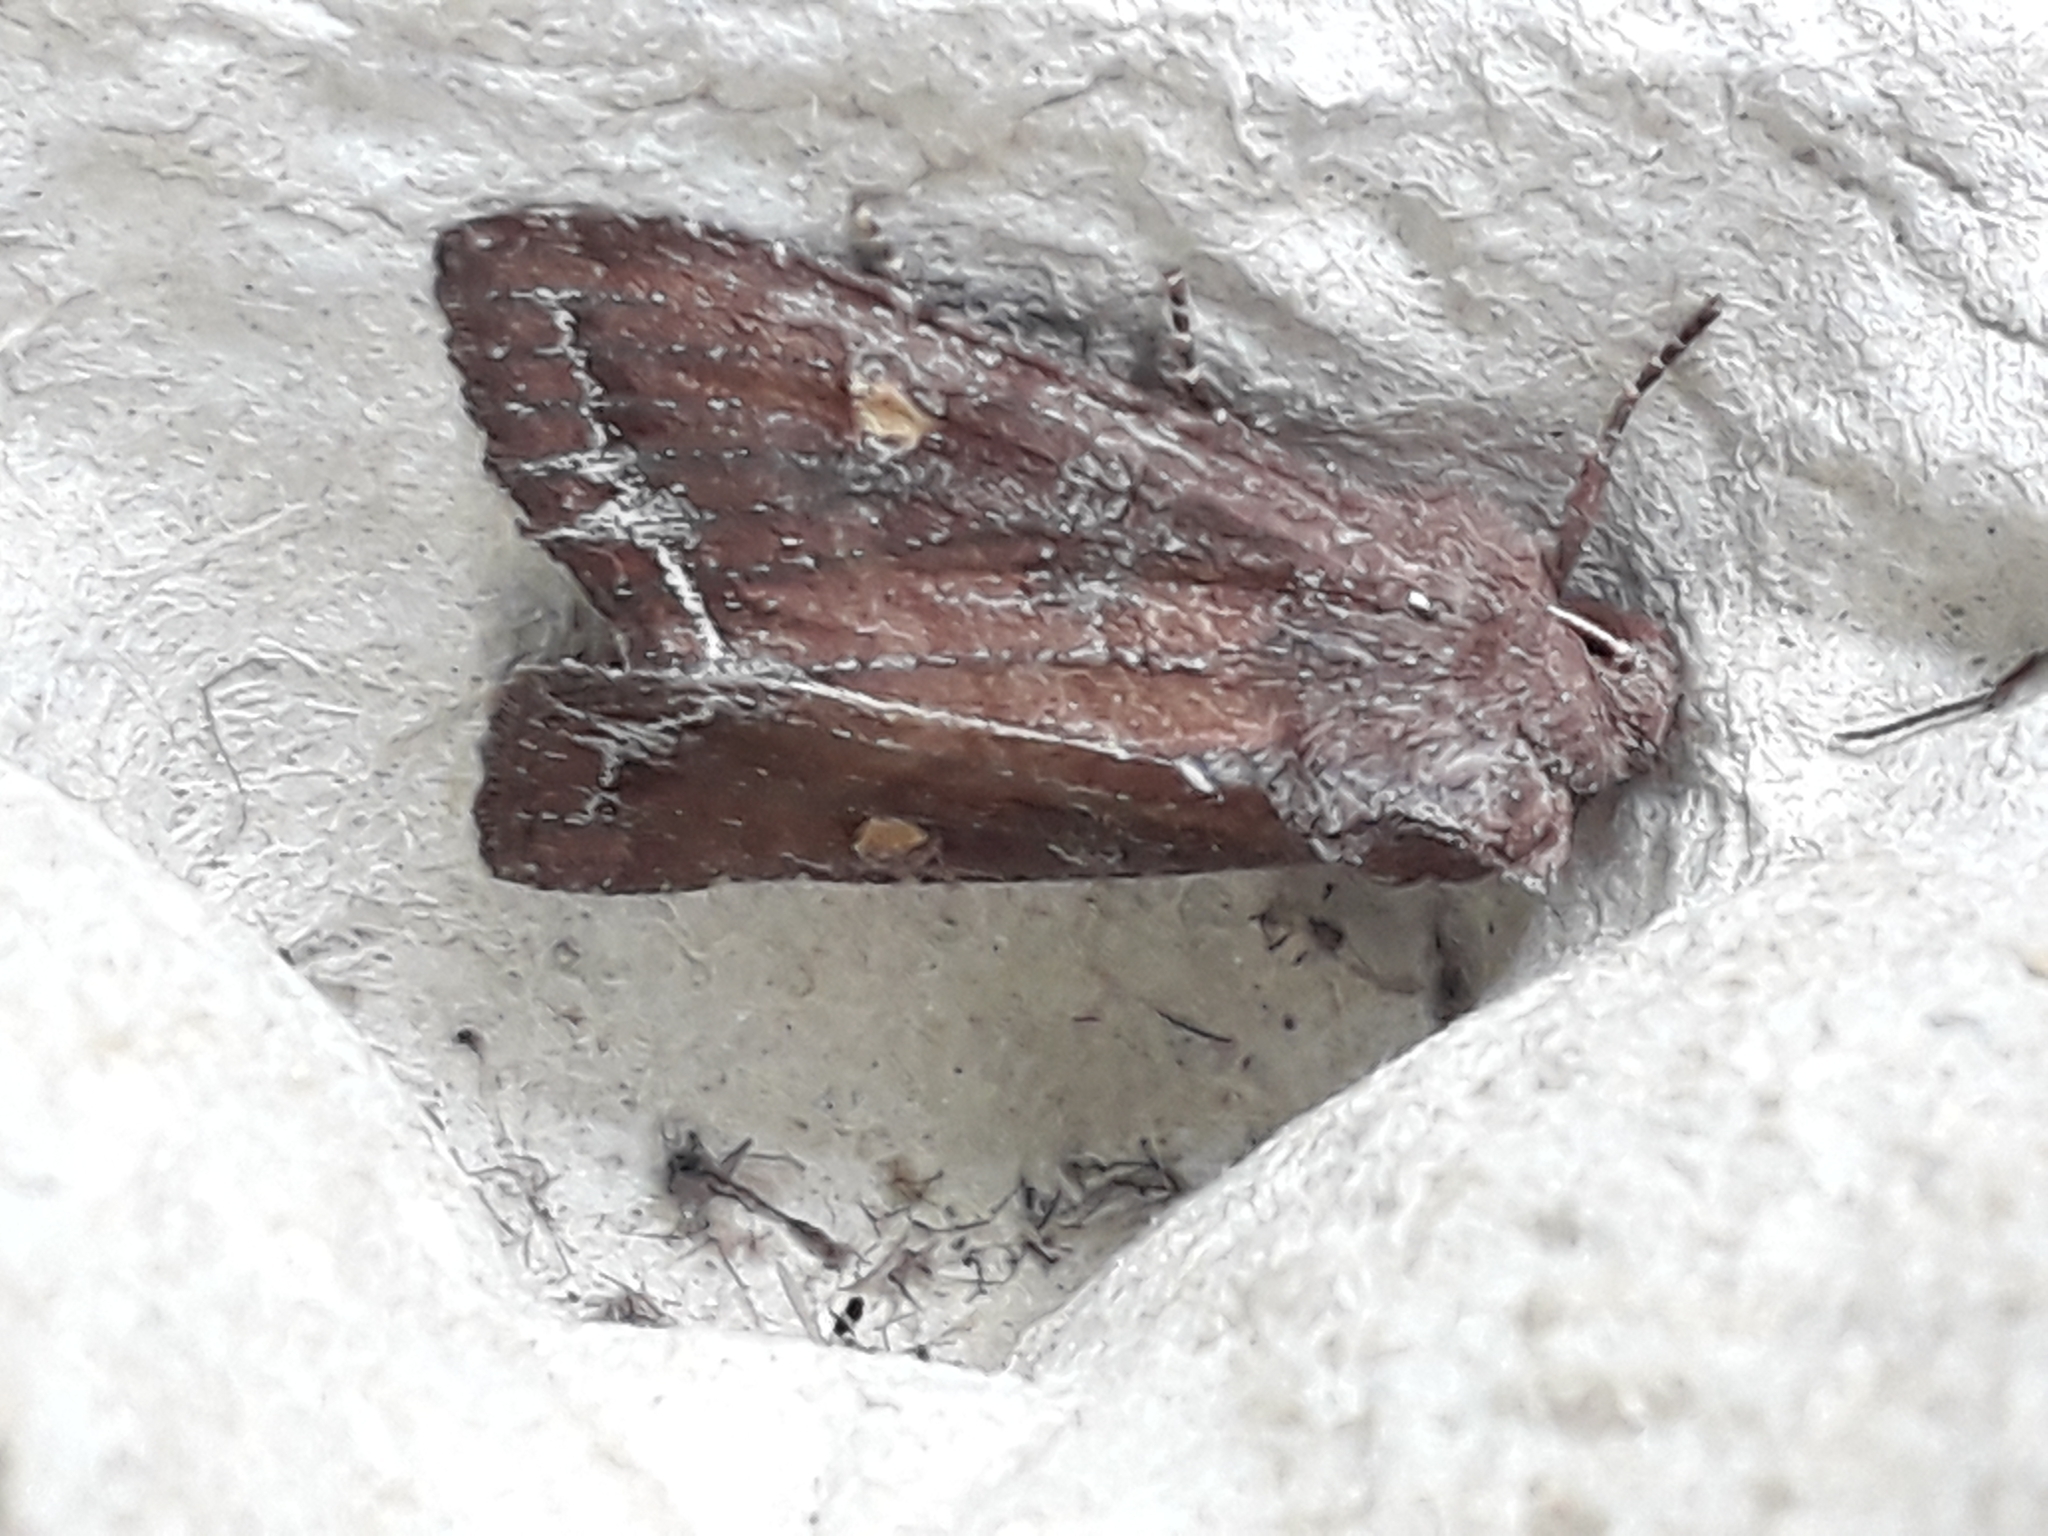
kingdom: Animalia
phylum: Arthropoda
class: Insecta
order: Lepidoptera
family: Noctuidae
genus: Lacanobia
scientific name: Lacanobia oleracea
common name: Bright-line brown-eye
